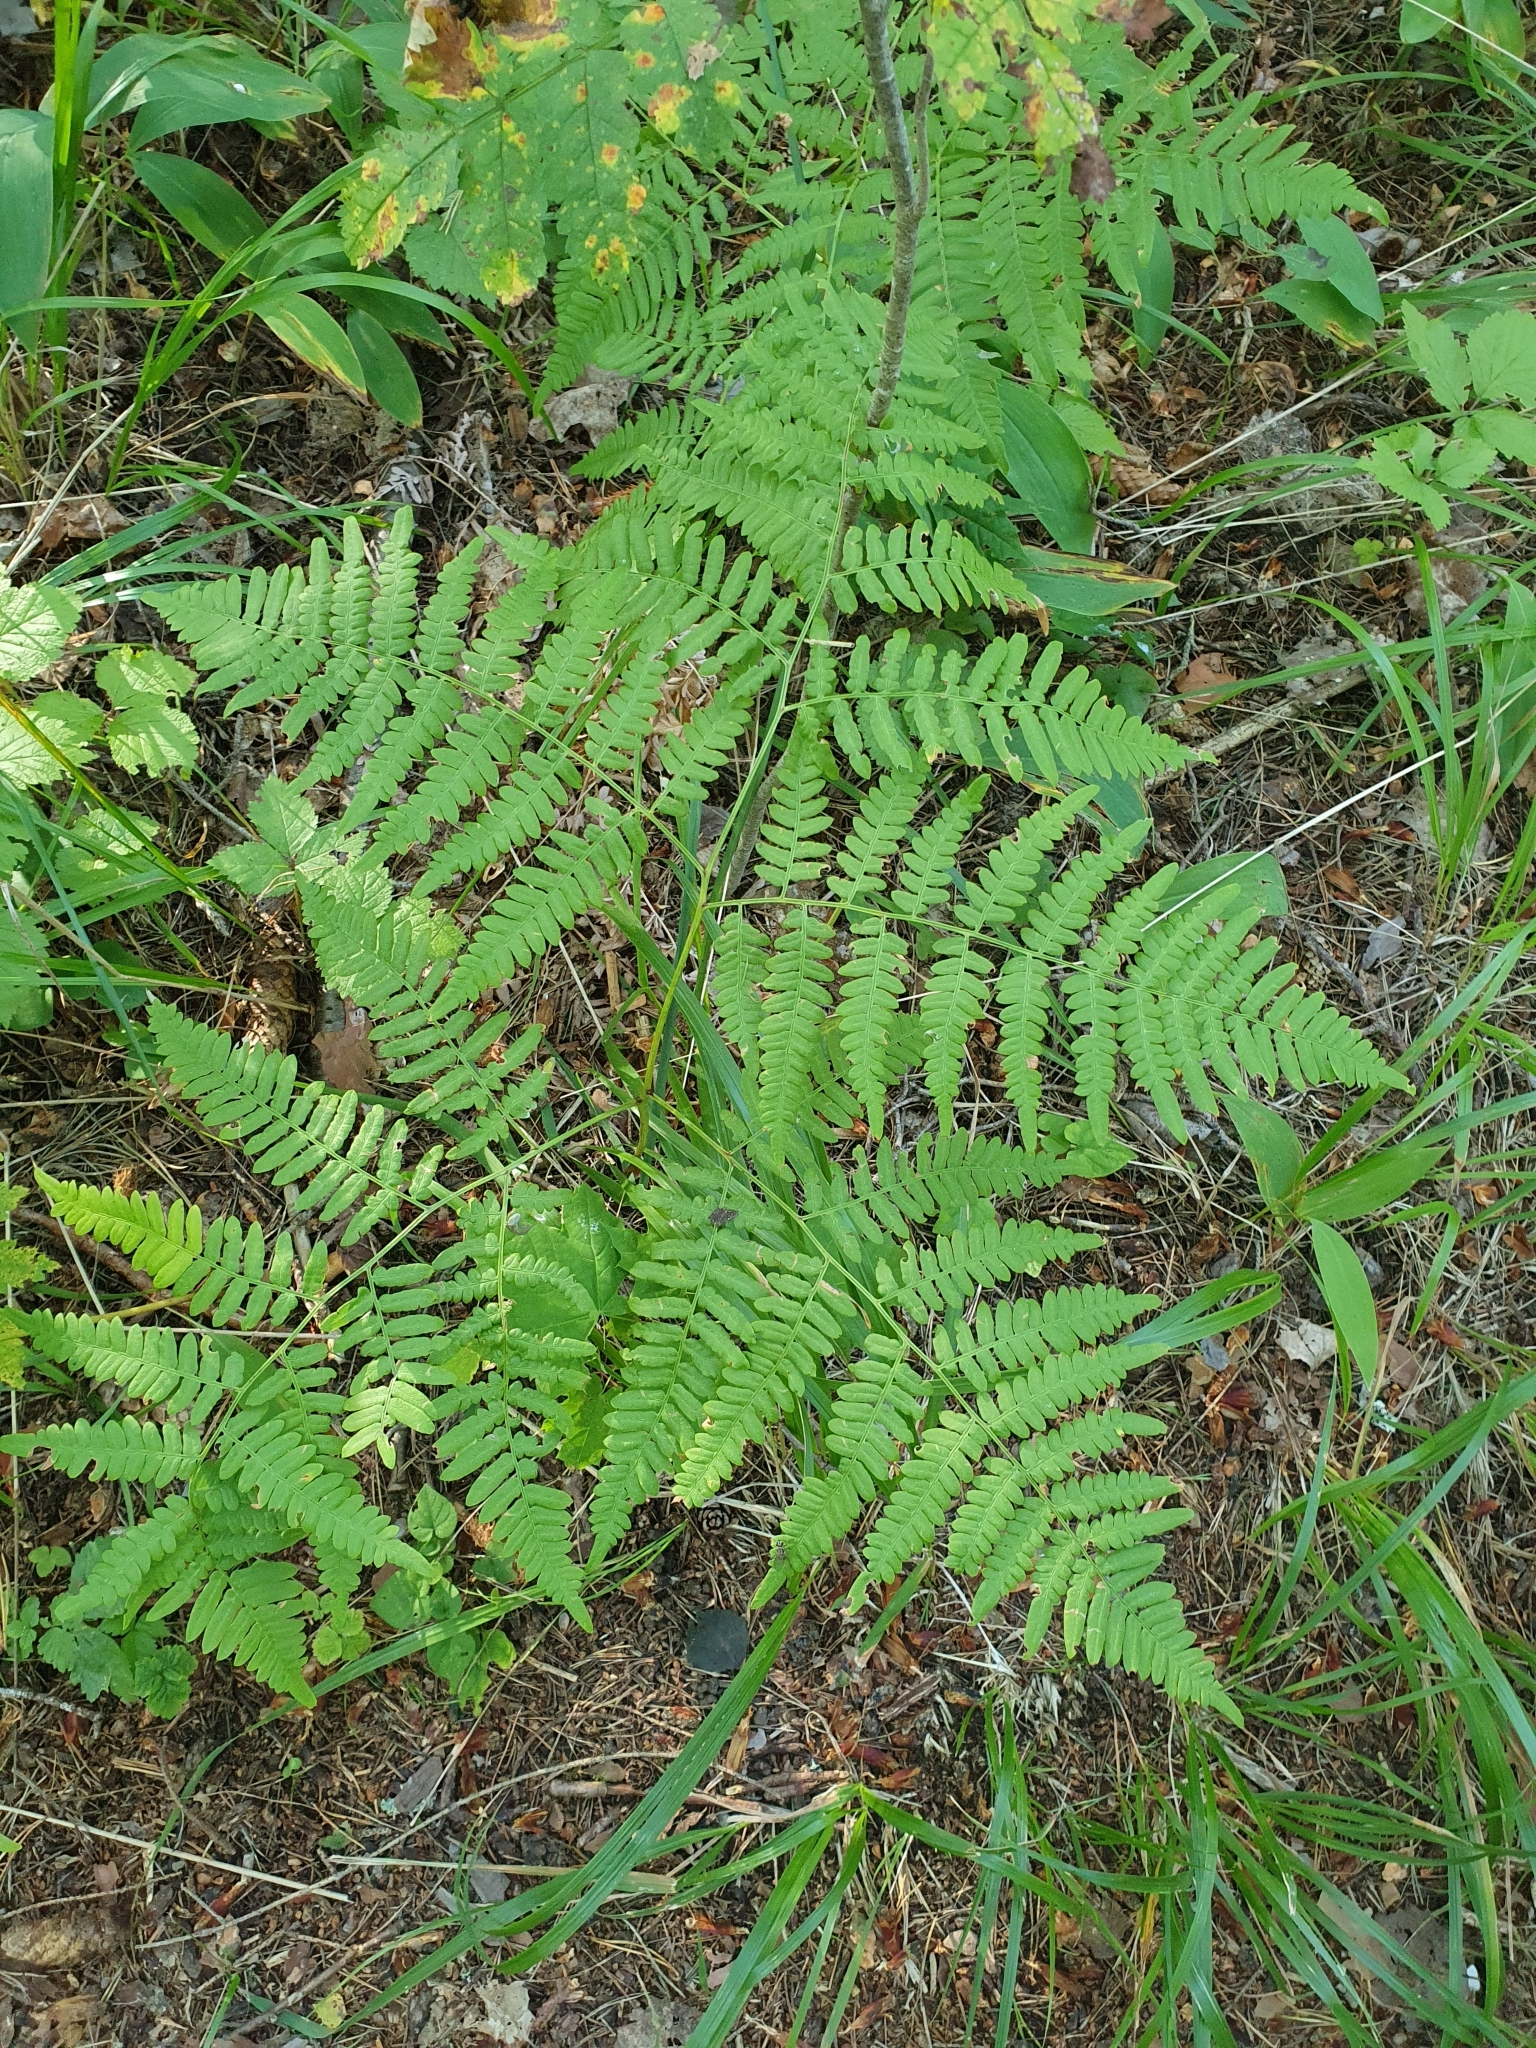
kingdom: Plantae
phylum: Tracheophyta
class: Polypodiopsida
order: Polypodiales
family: Dennstaedtiaceae
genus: Pteridium
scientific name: Pteridium aquilinum
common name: Bracken
